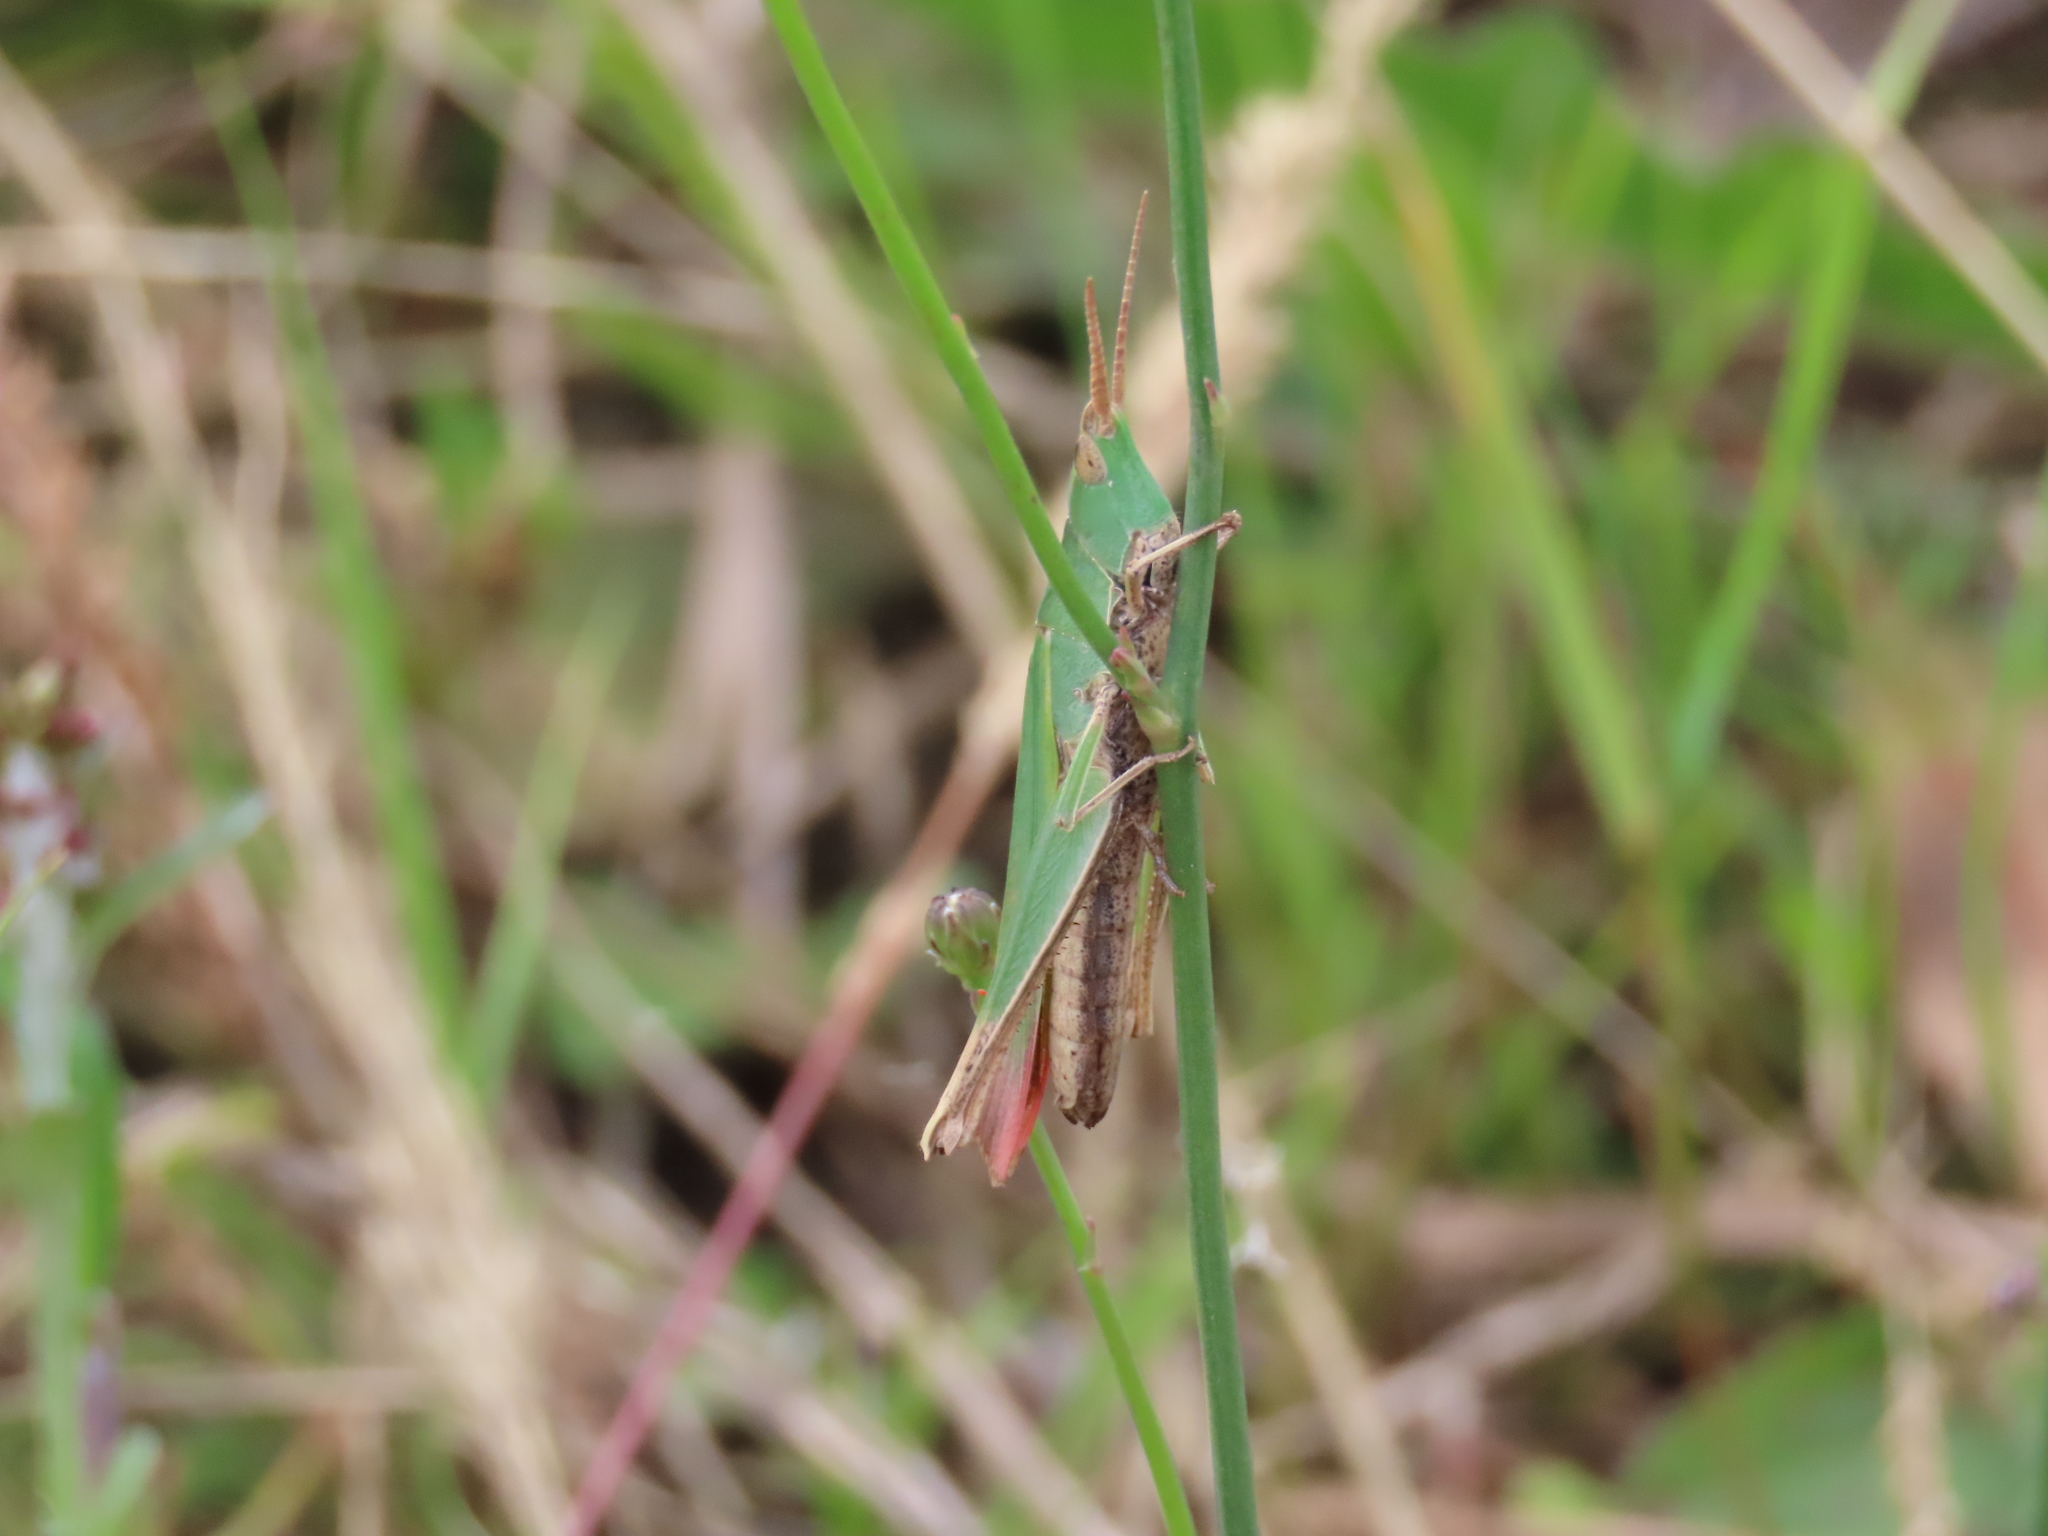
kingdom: Animalia
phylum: Arthropoda
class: Insecta
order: Orthoptera
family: Acrididae
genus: Allotruxalis
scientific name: Allotruxalis gracilis
